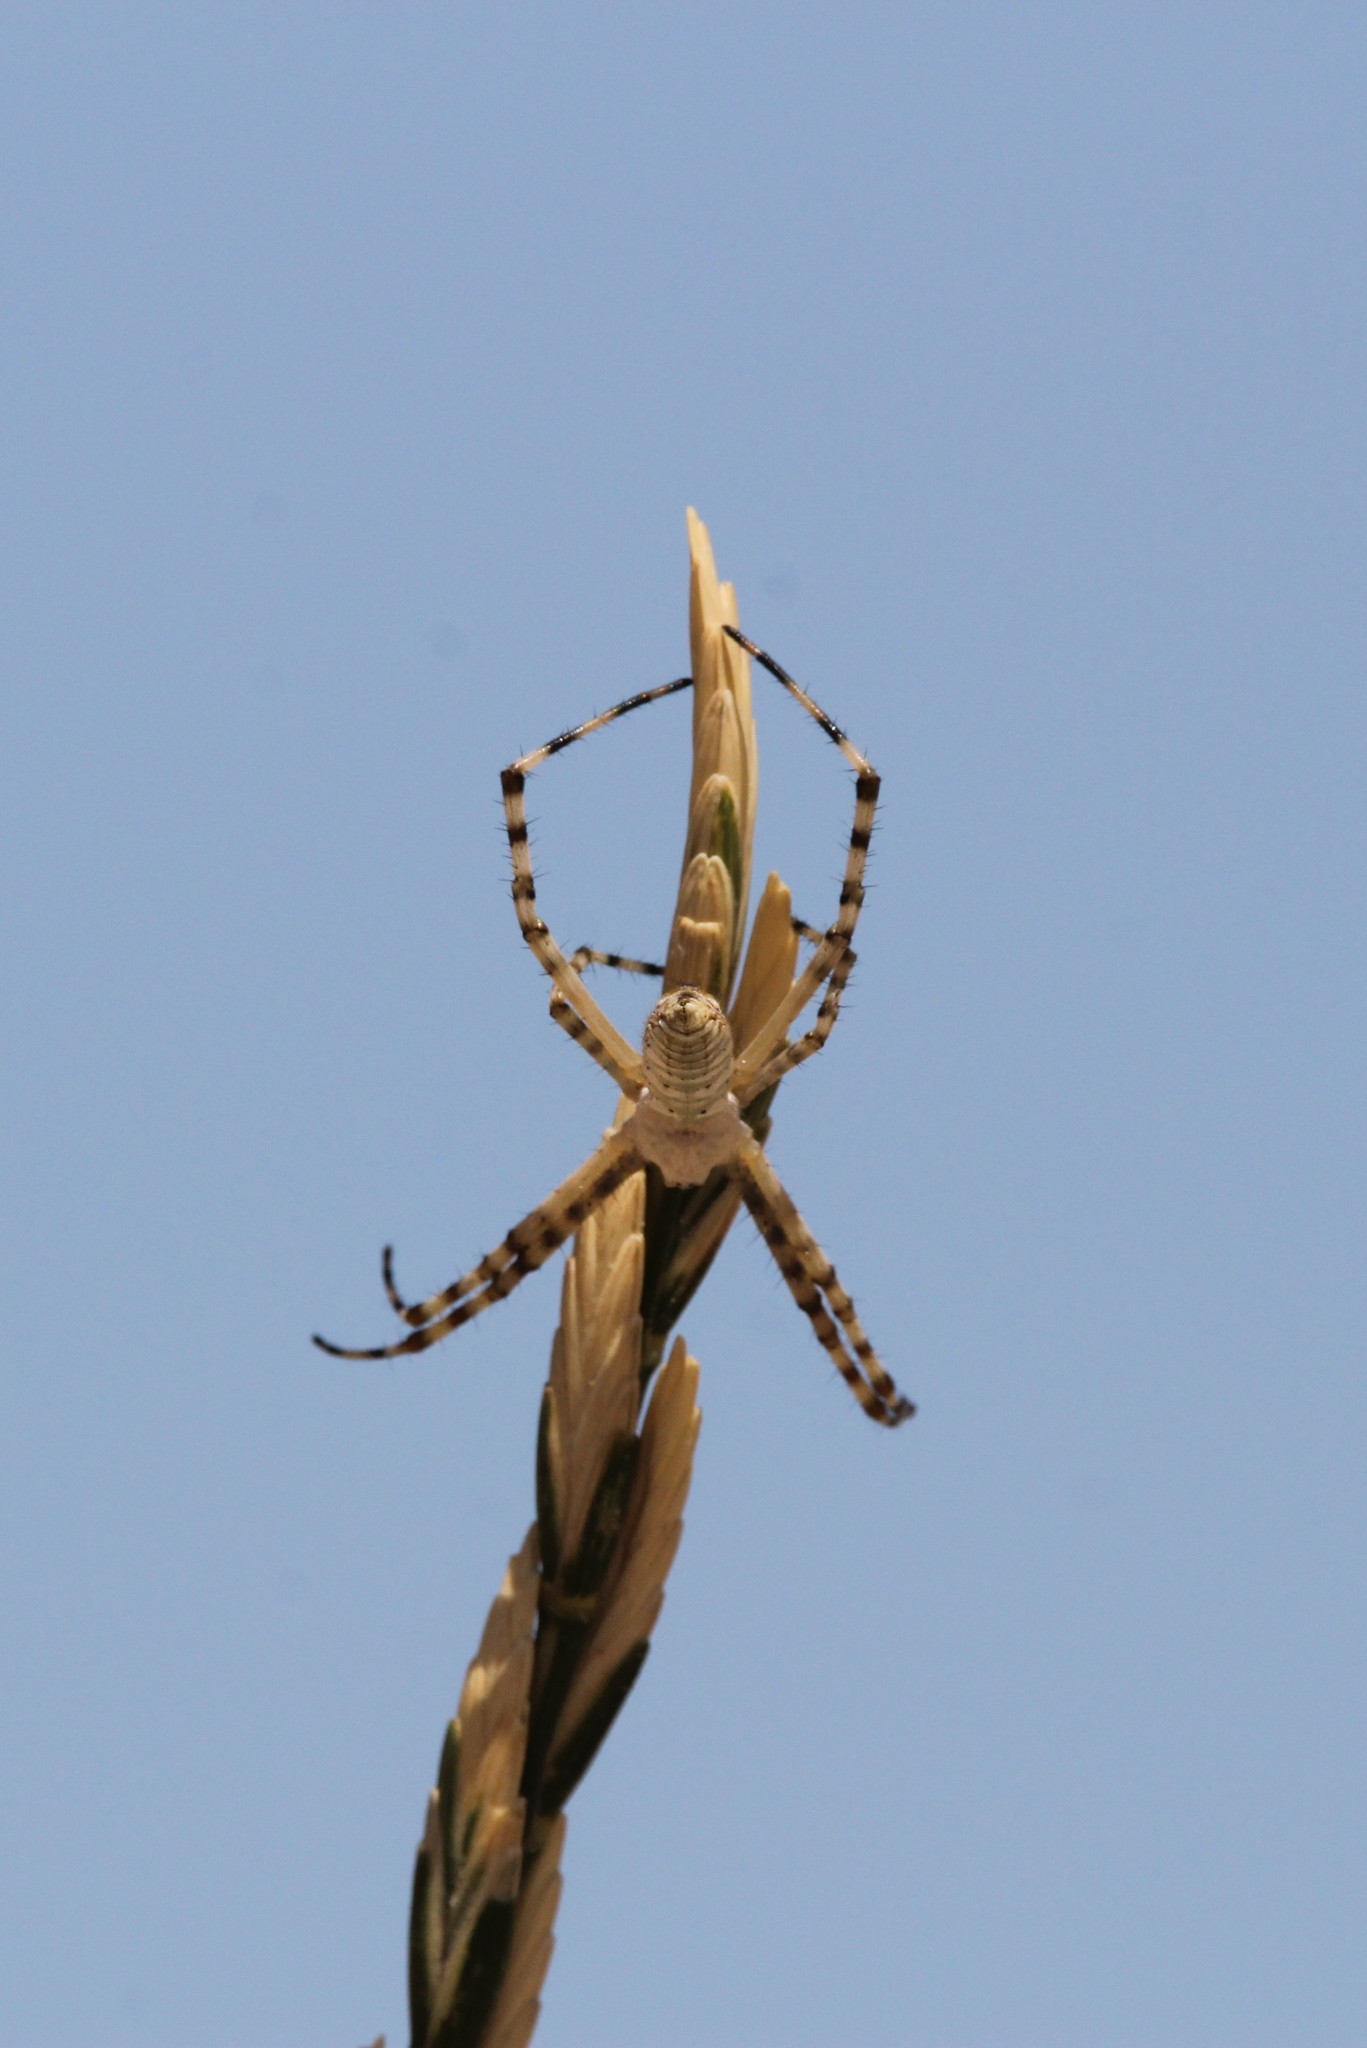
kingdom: Animalia
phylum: Arthropoda
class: Arachnida
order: Araneae
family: Araneidae
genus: Argiope
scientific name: Argiope trifasciata
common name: Banded garden spider
